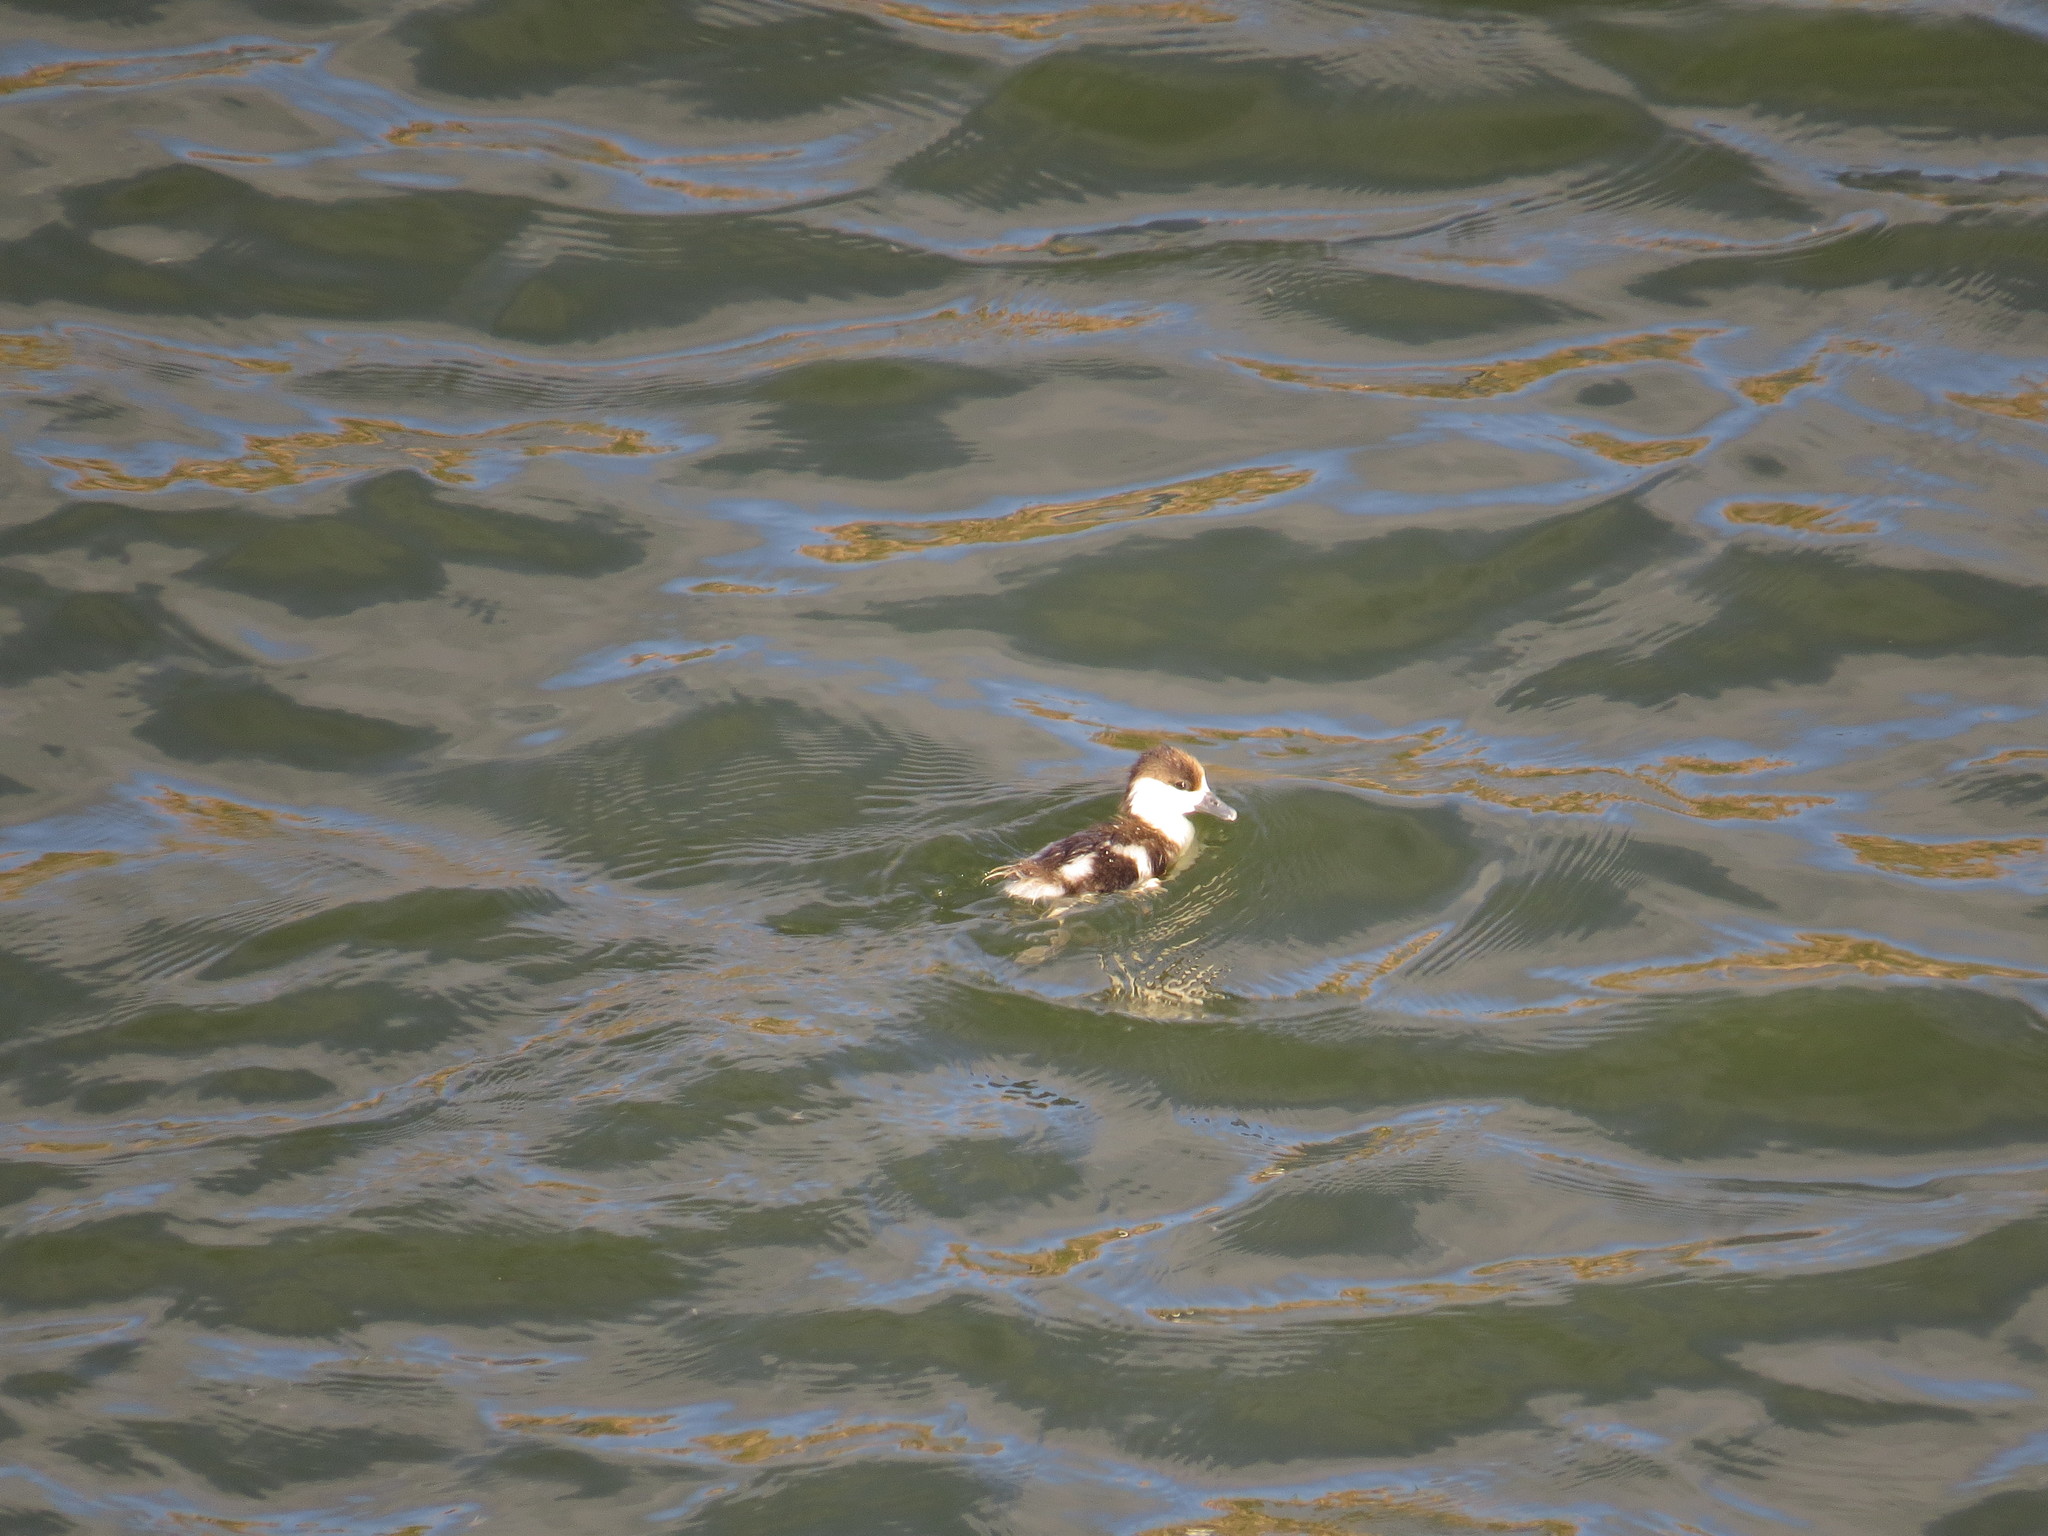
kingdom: Animalia
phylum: Chordata
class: Aves
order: Anseriformes
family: Anatidae
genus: Tadorna
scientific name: Tadorna ferruginea
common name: Ruddy shelduck
